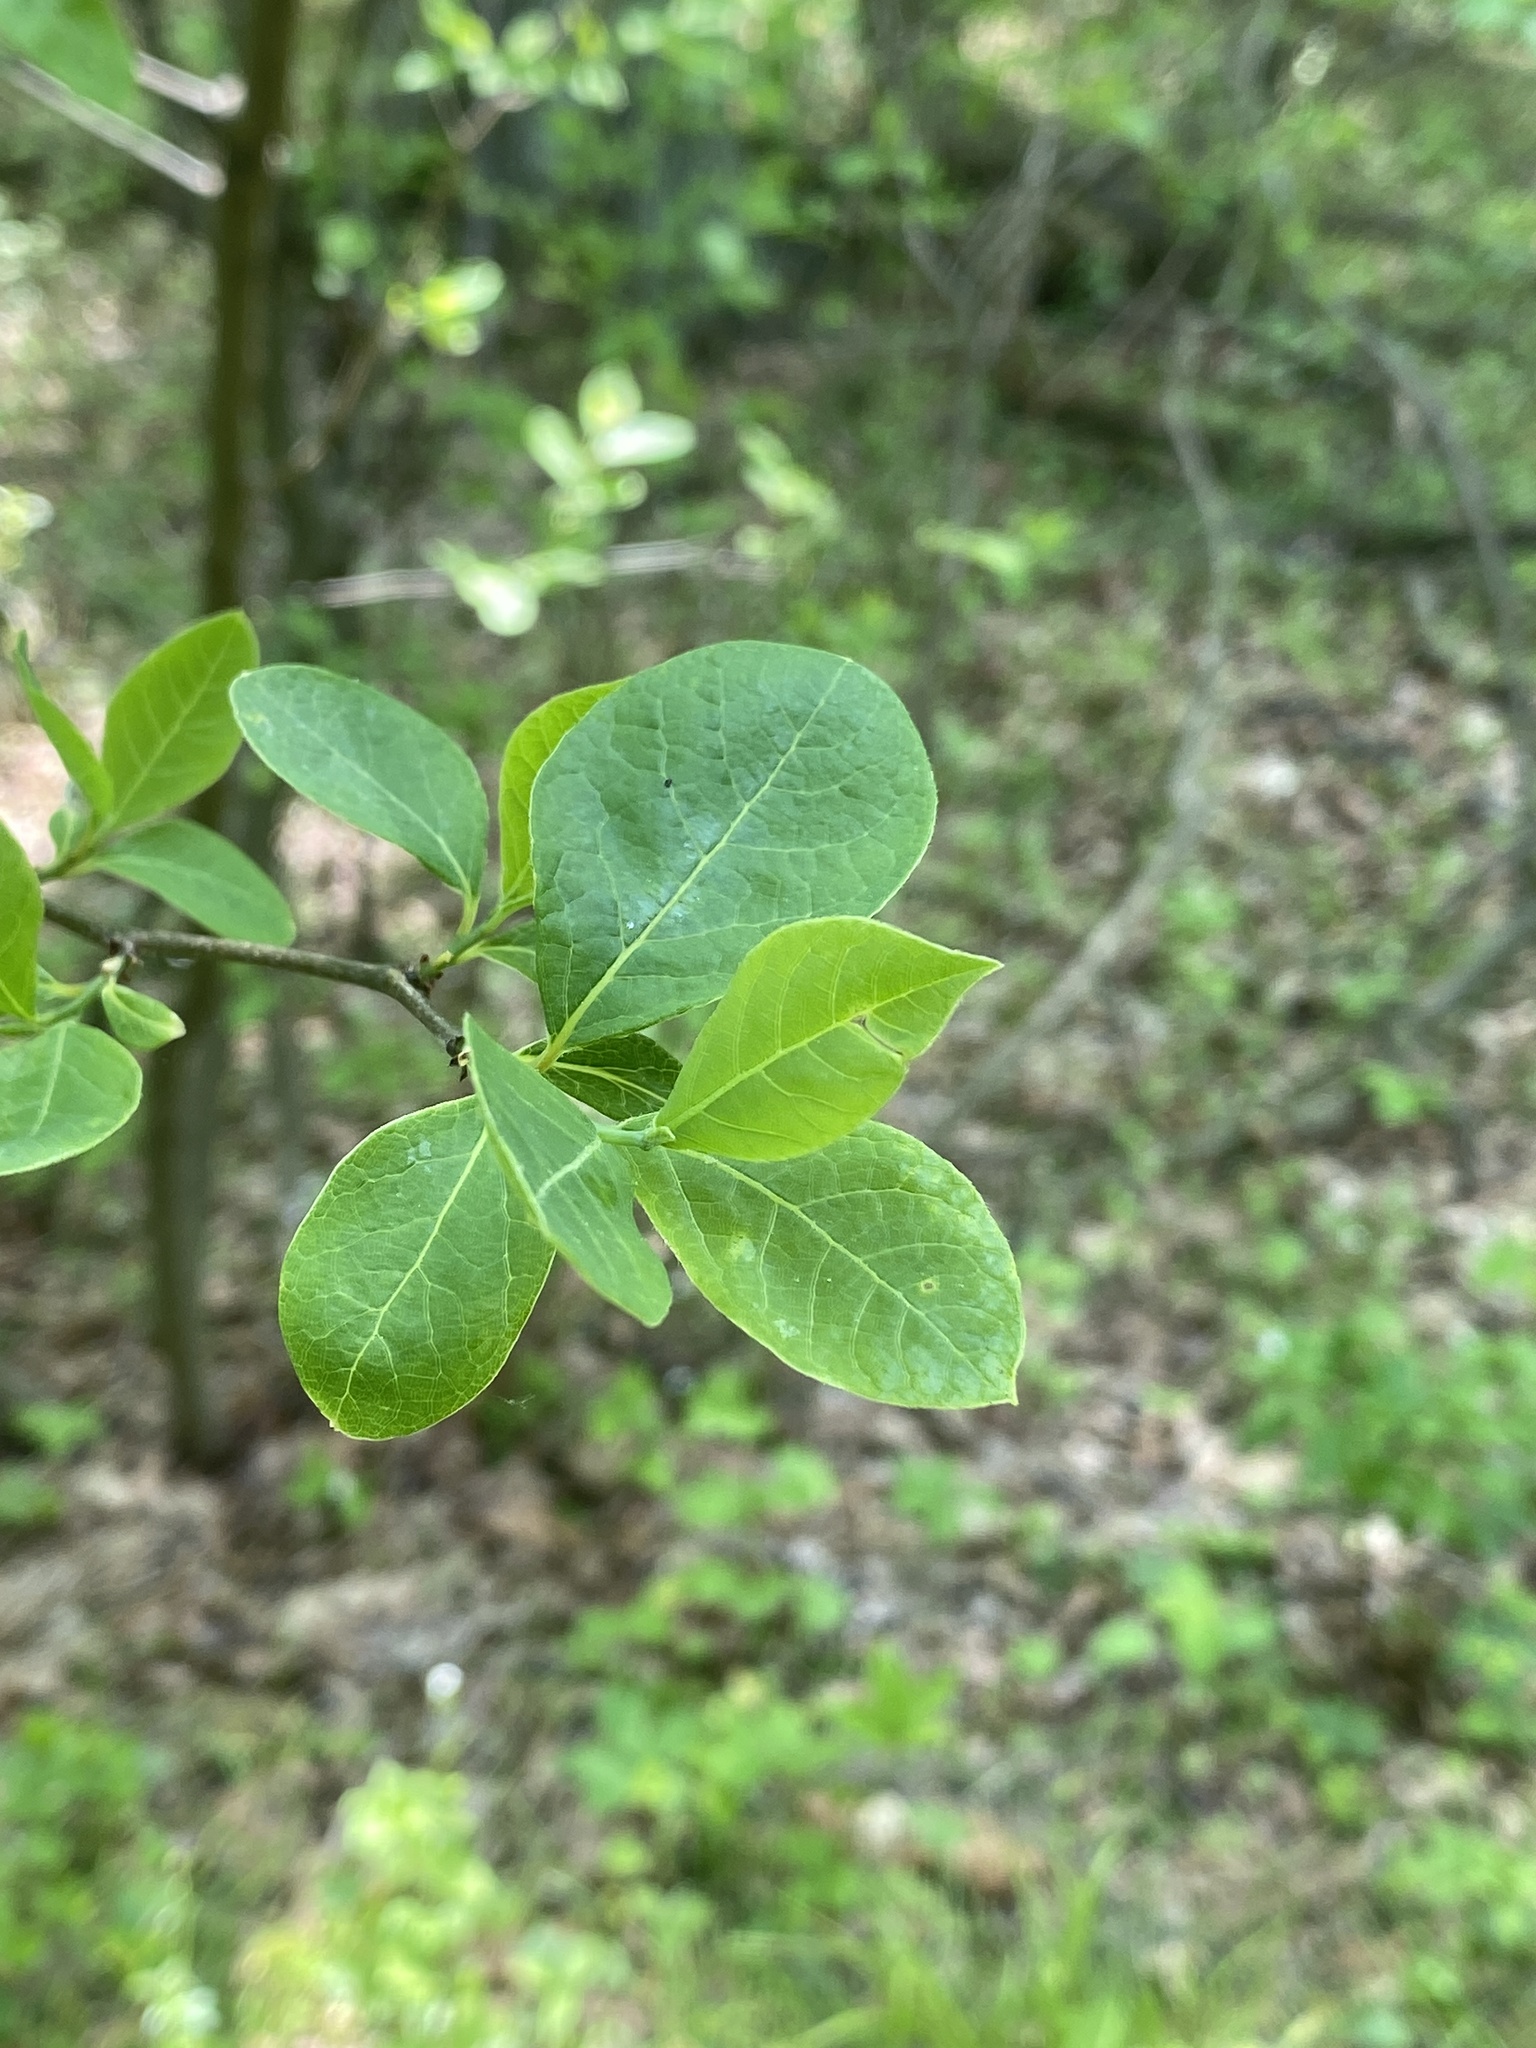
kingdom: Plantae
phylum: Tracheophyta
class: Magnoliopsida
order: Laurales
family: Lauraceae
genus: Lindera
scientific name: Lindera benzoin
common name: Spicebush
